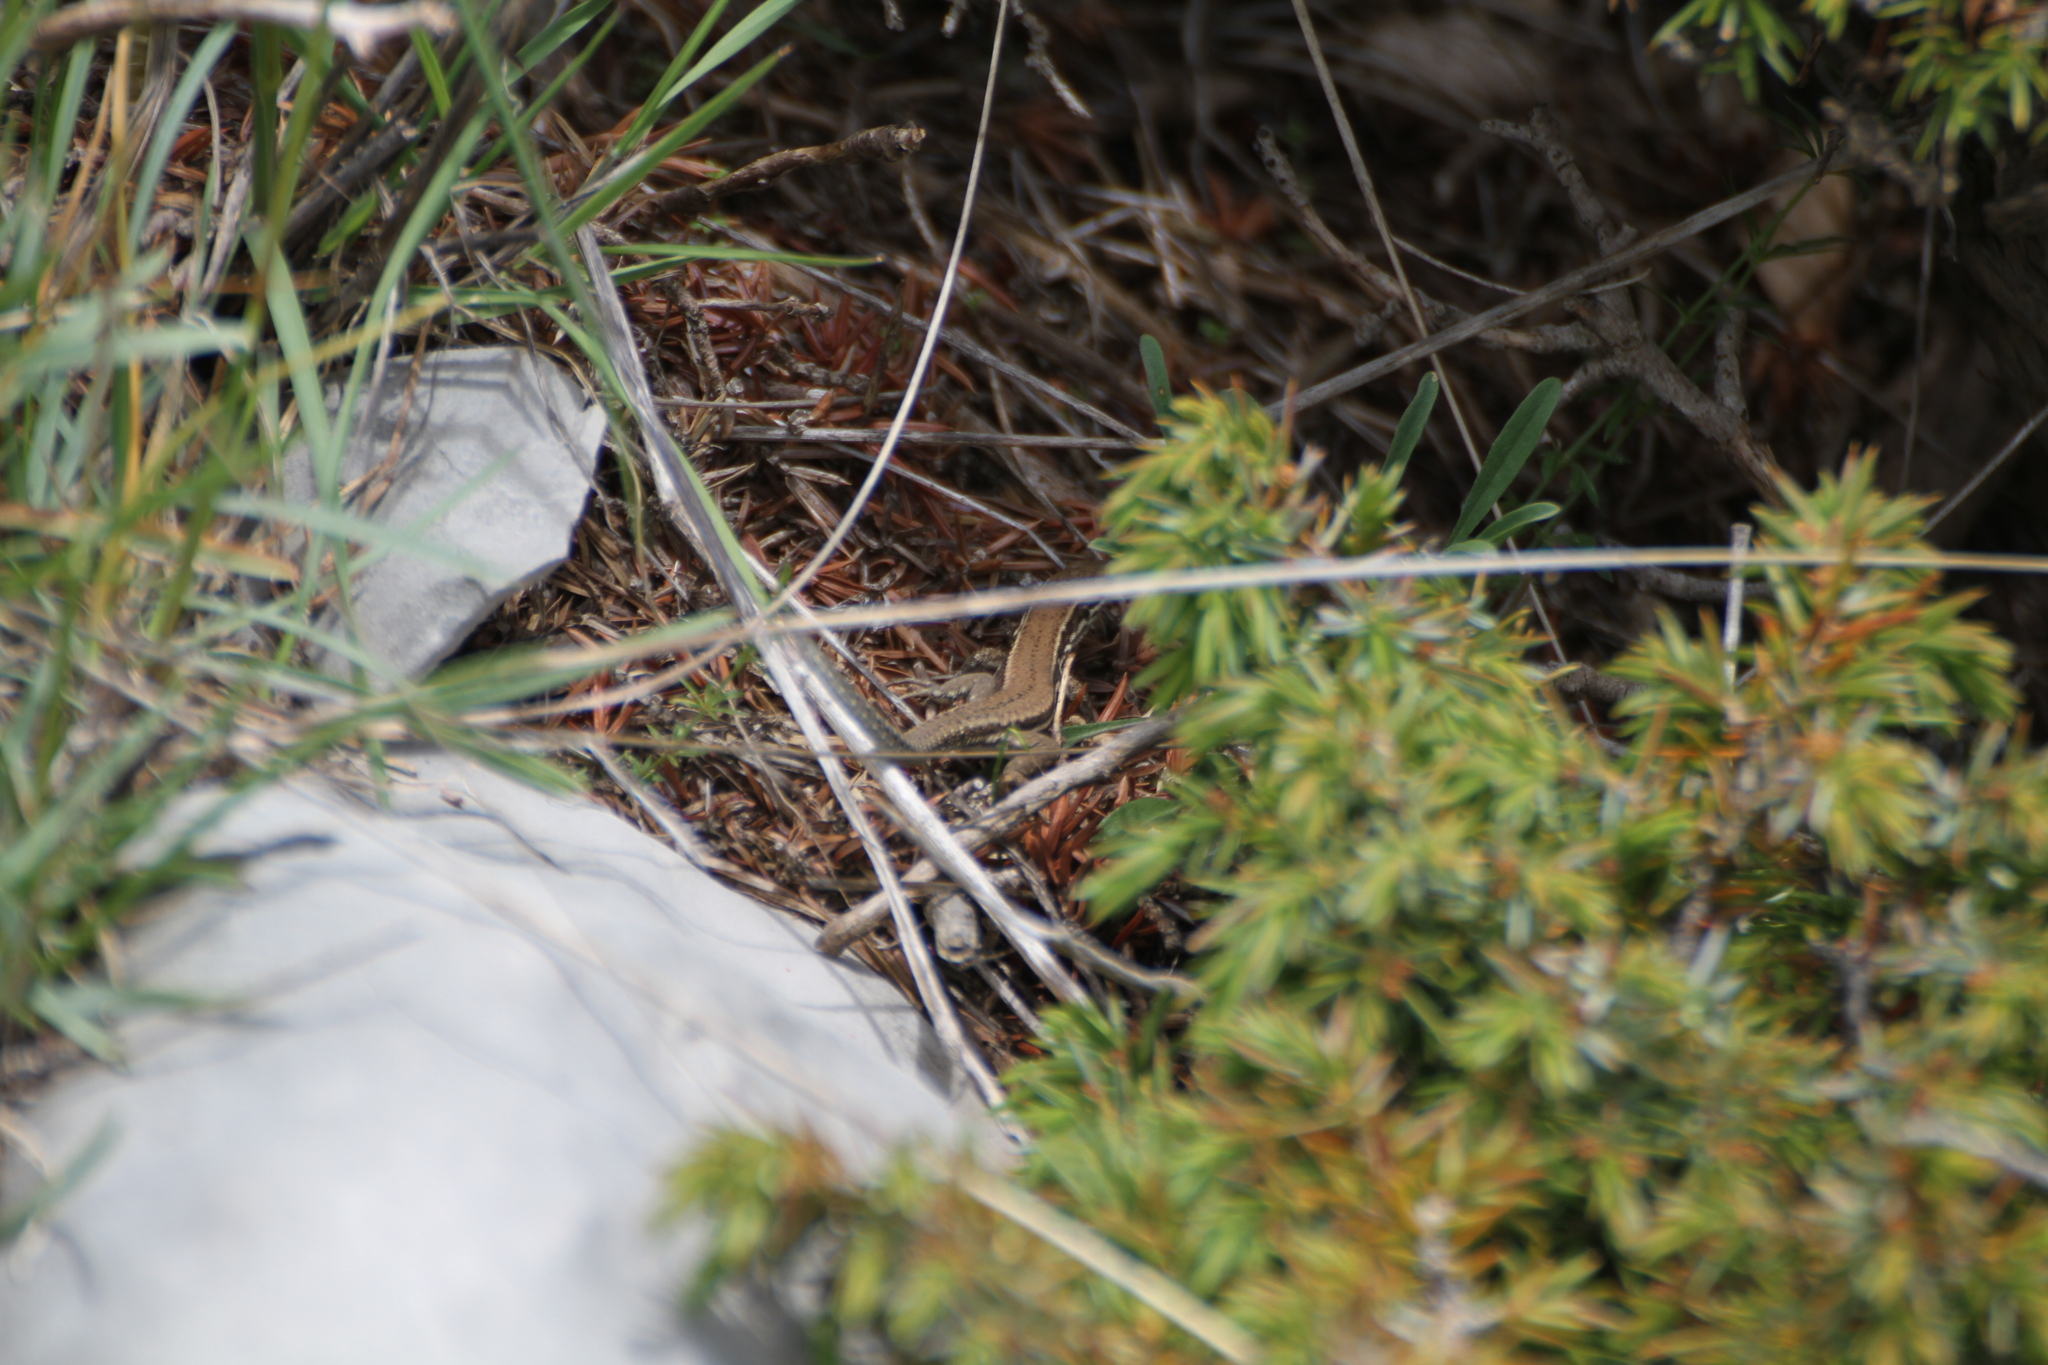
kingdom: Animalia
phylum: Chordata
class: Squamata
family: Lacertidae
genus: Podarcis
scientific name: Podarcis muralis
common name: Common wall lizard
